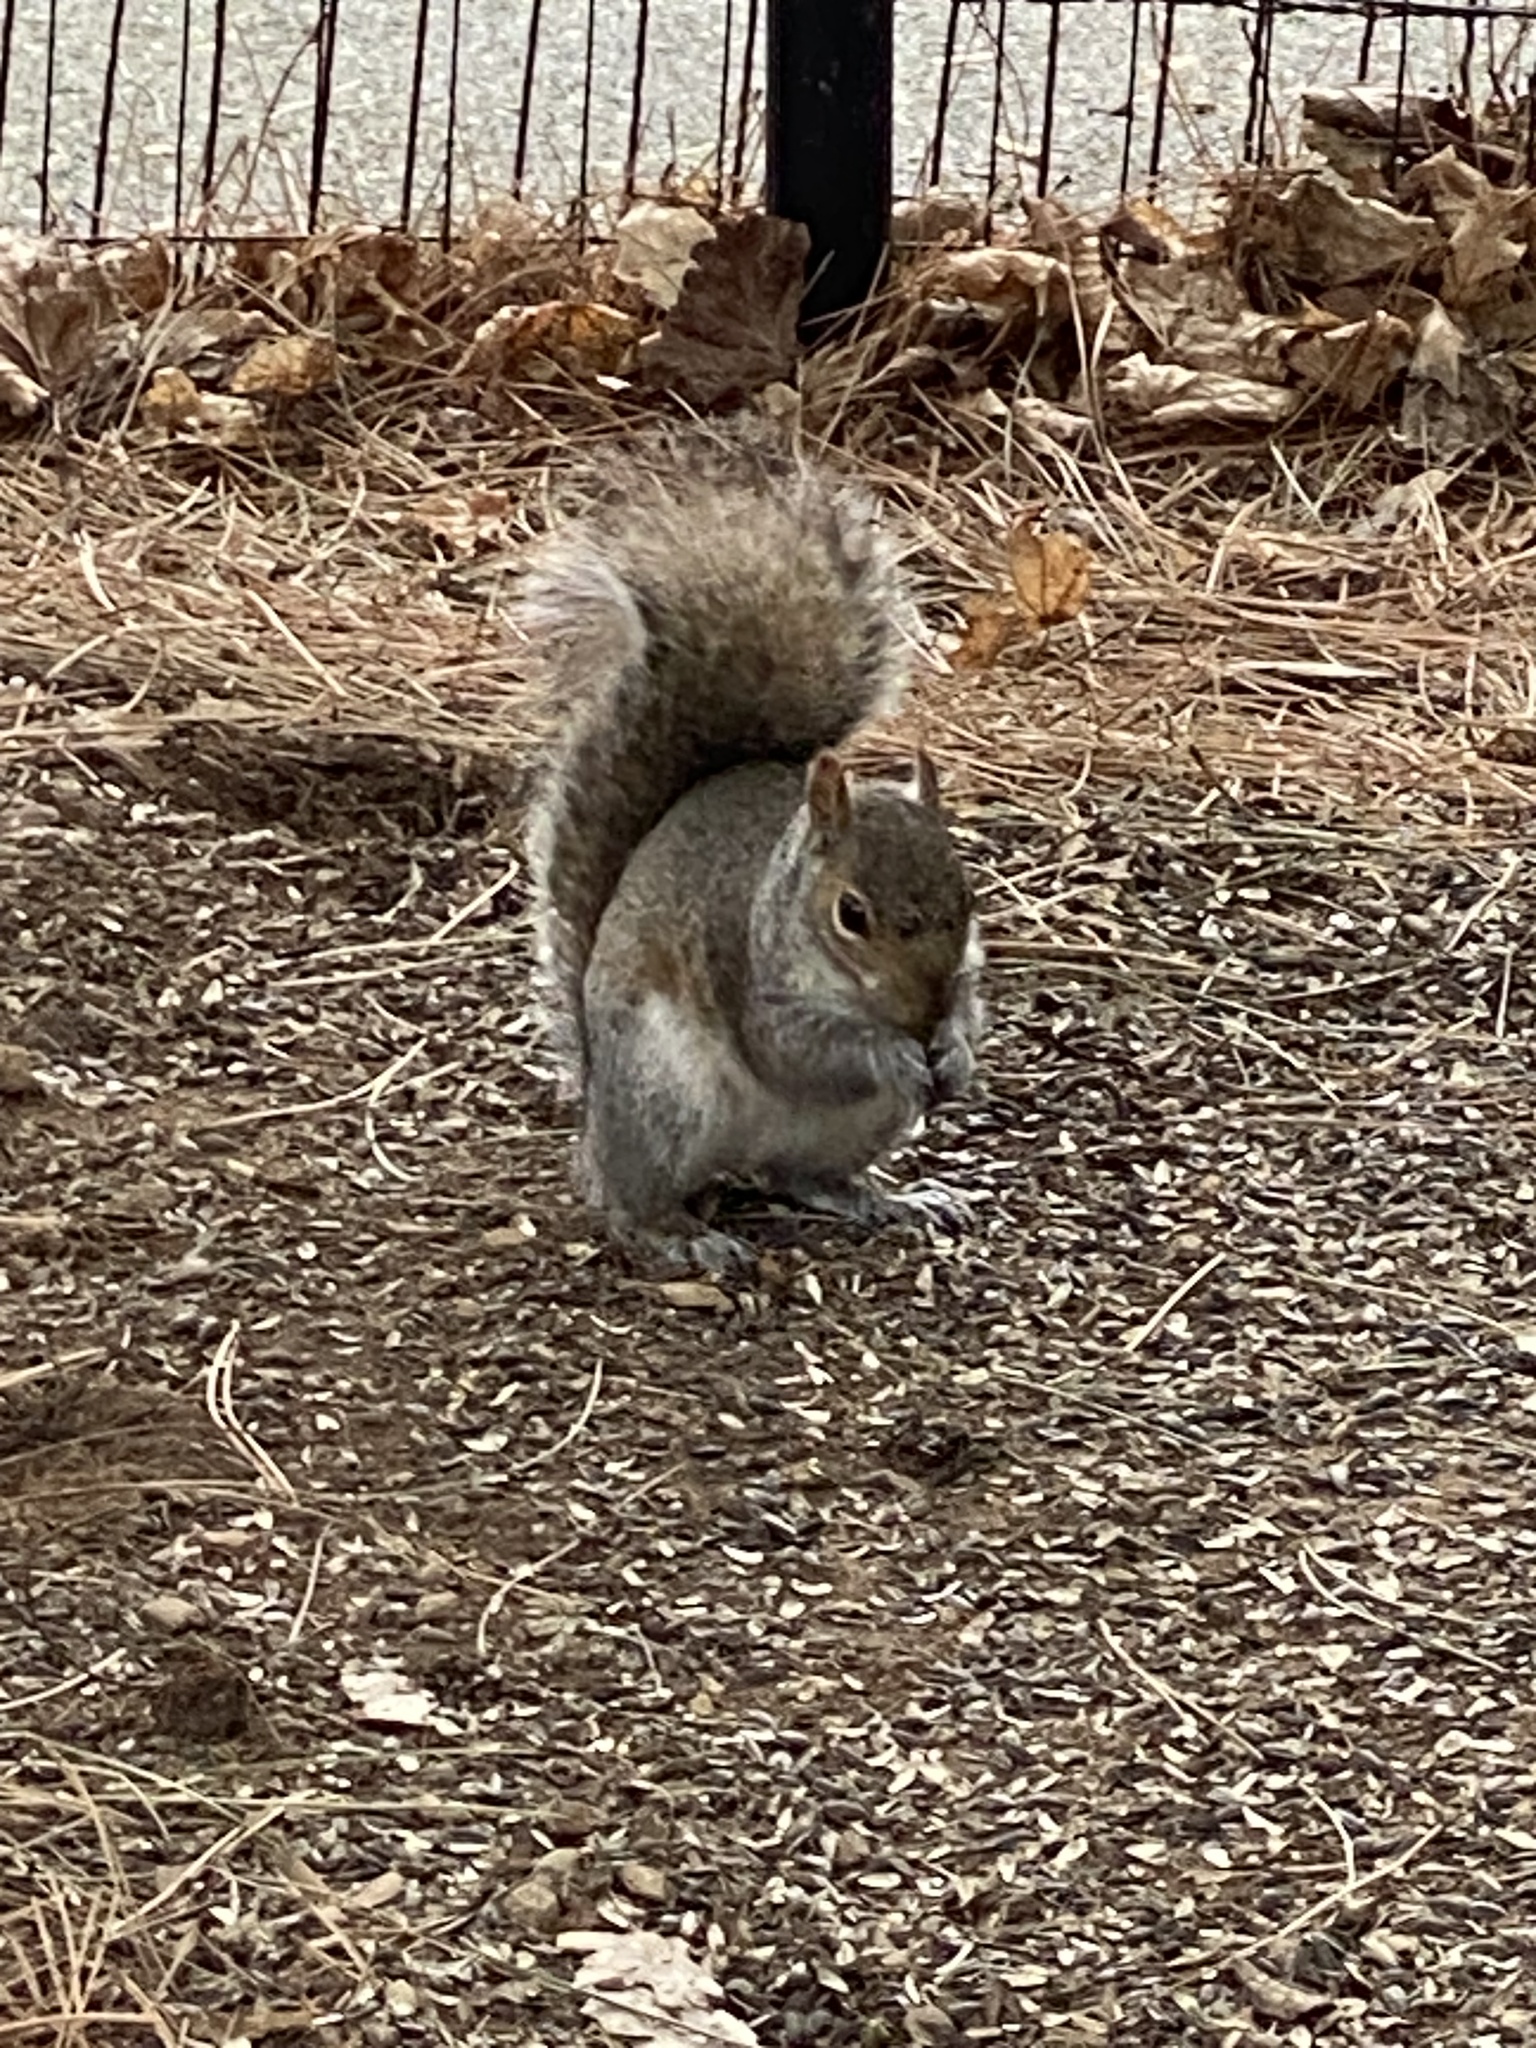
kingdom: Animalia
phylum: Chordata
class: Mammalia
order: Rodentia
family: Sciuridae
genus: Sciurus
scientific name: Sciurus carolinensis
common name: Eastern gray squirrel
